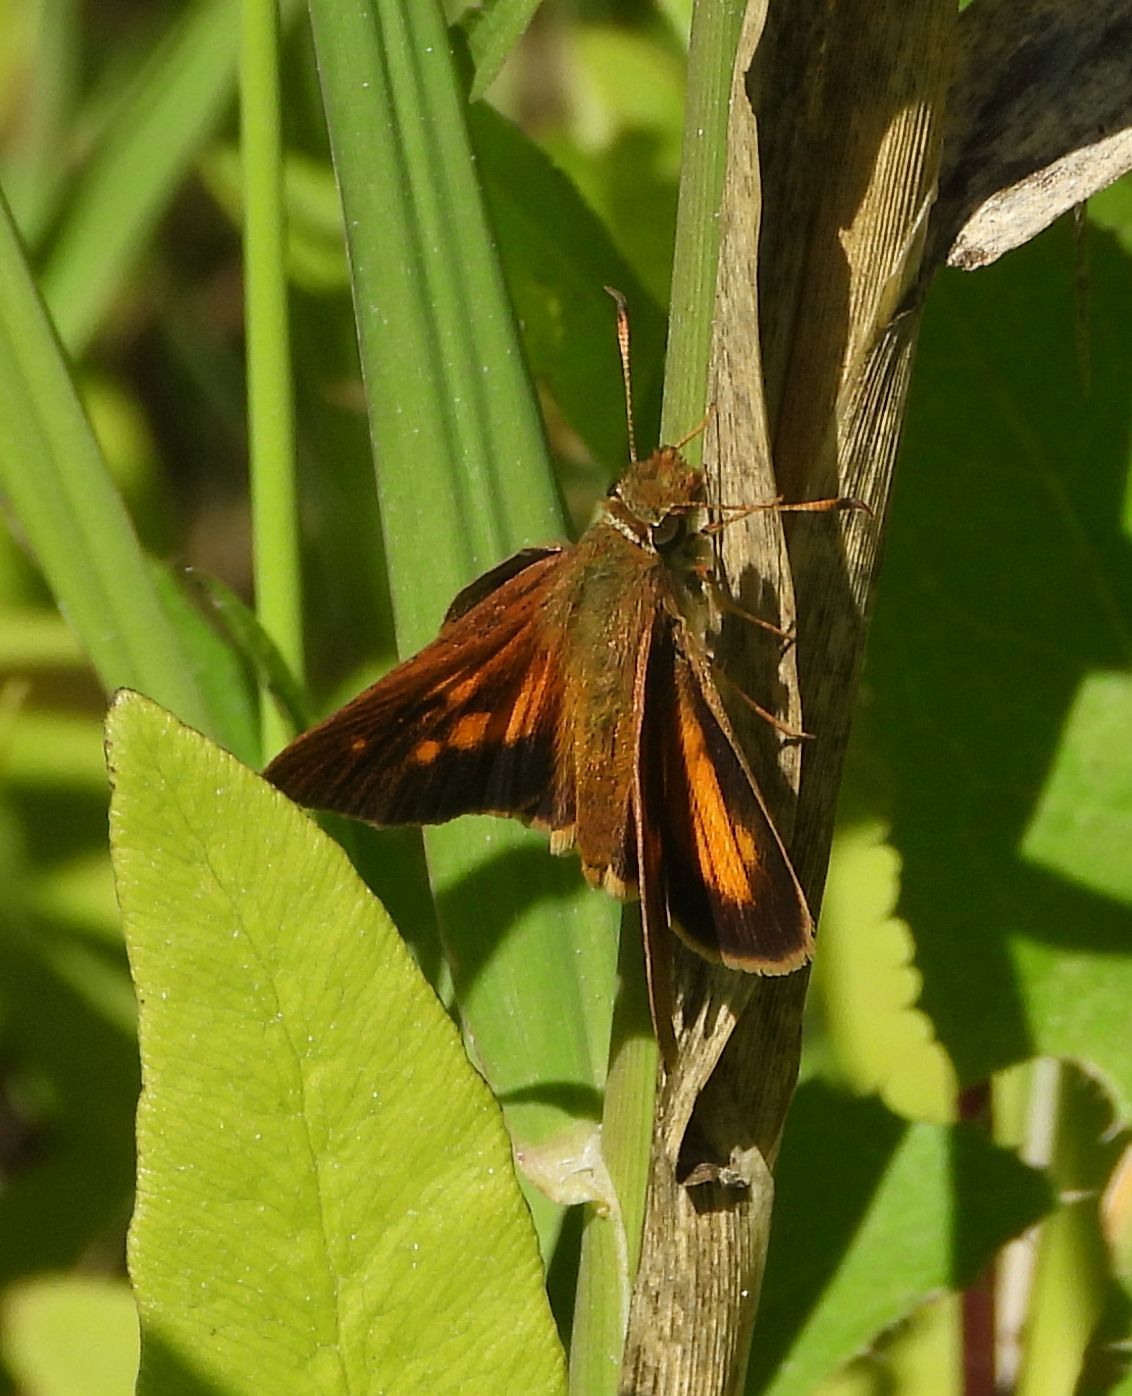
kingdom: Animalia
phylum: Arthropoda
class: Insecta
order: Lepidoptera
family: Hesperiidae
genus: Poanes
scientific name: Poanes viator
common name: Broad-winged skipper
